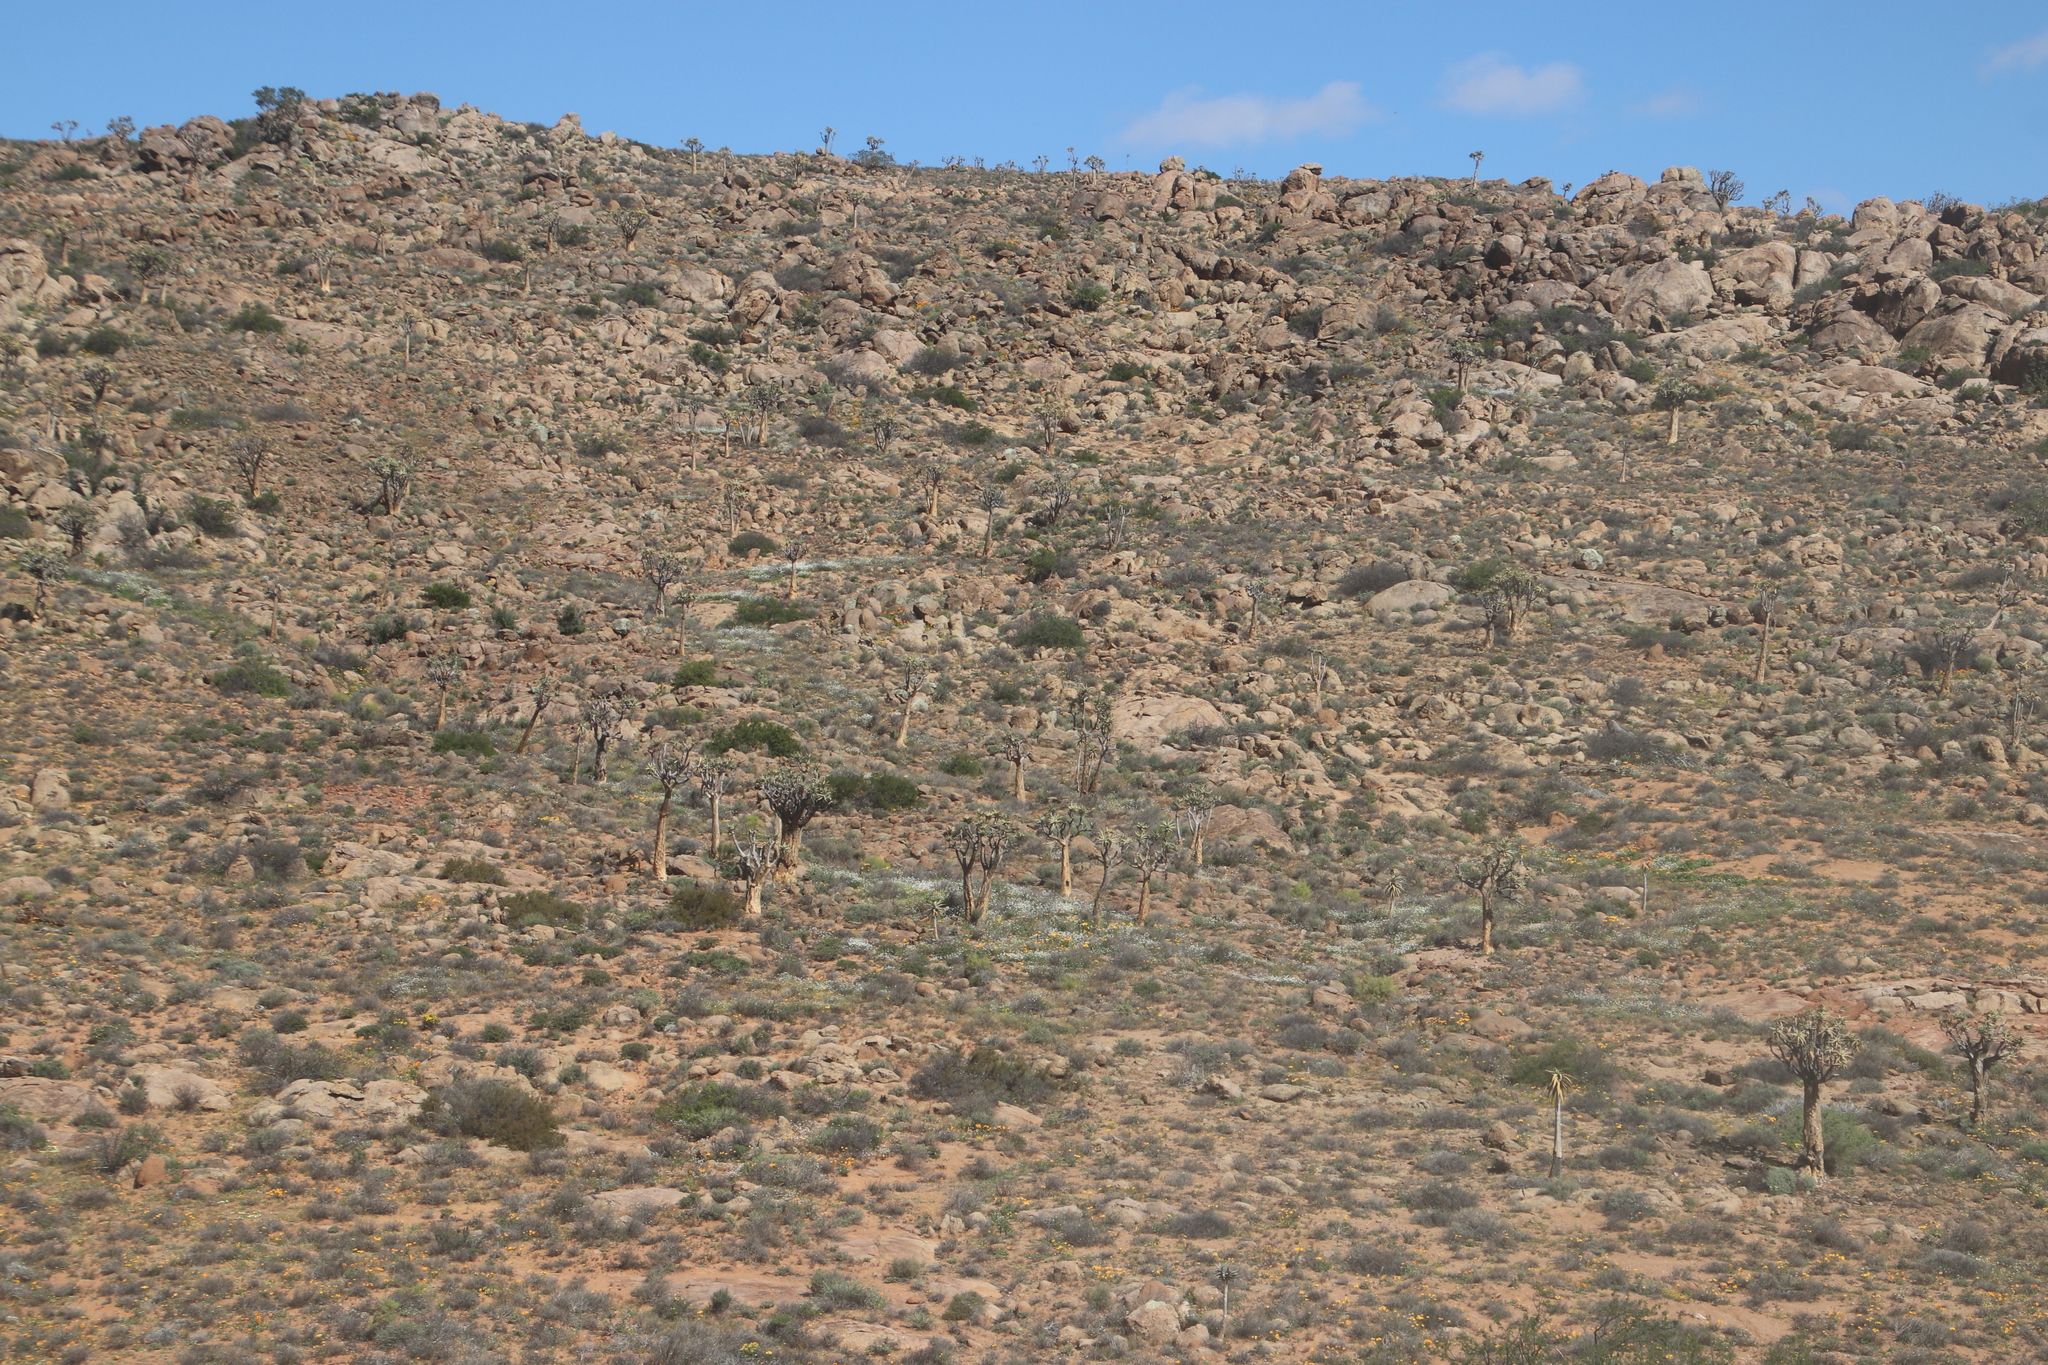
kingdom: Plantae
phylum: Tracheophyta
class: Liliopsida
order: Asparagales
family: Asphodelaceae
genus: Aloidendron
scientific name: Aloidendron dichotomum
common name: Quiver tree
